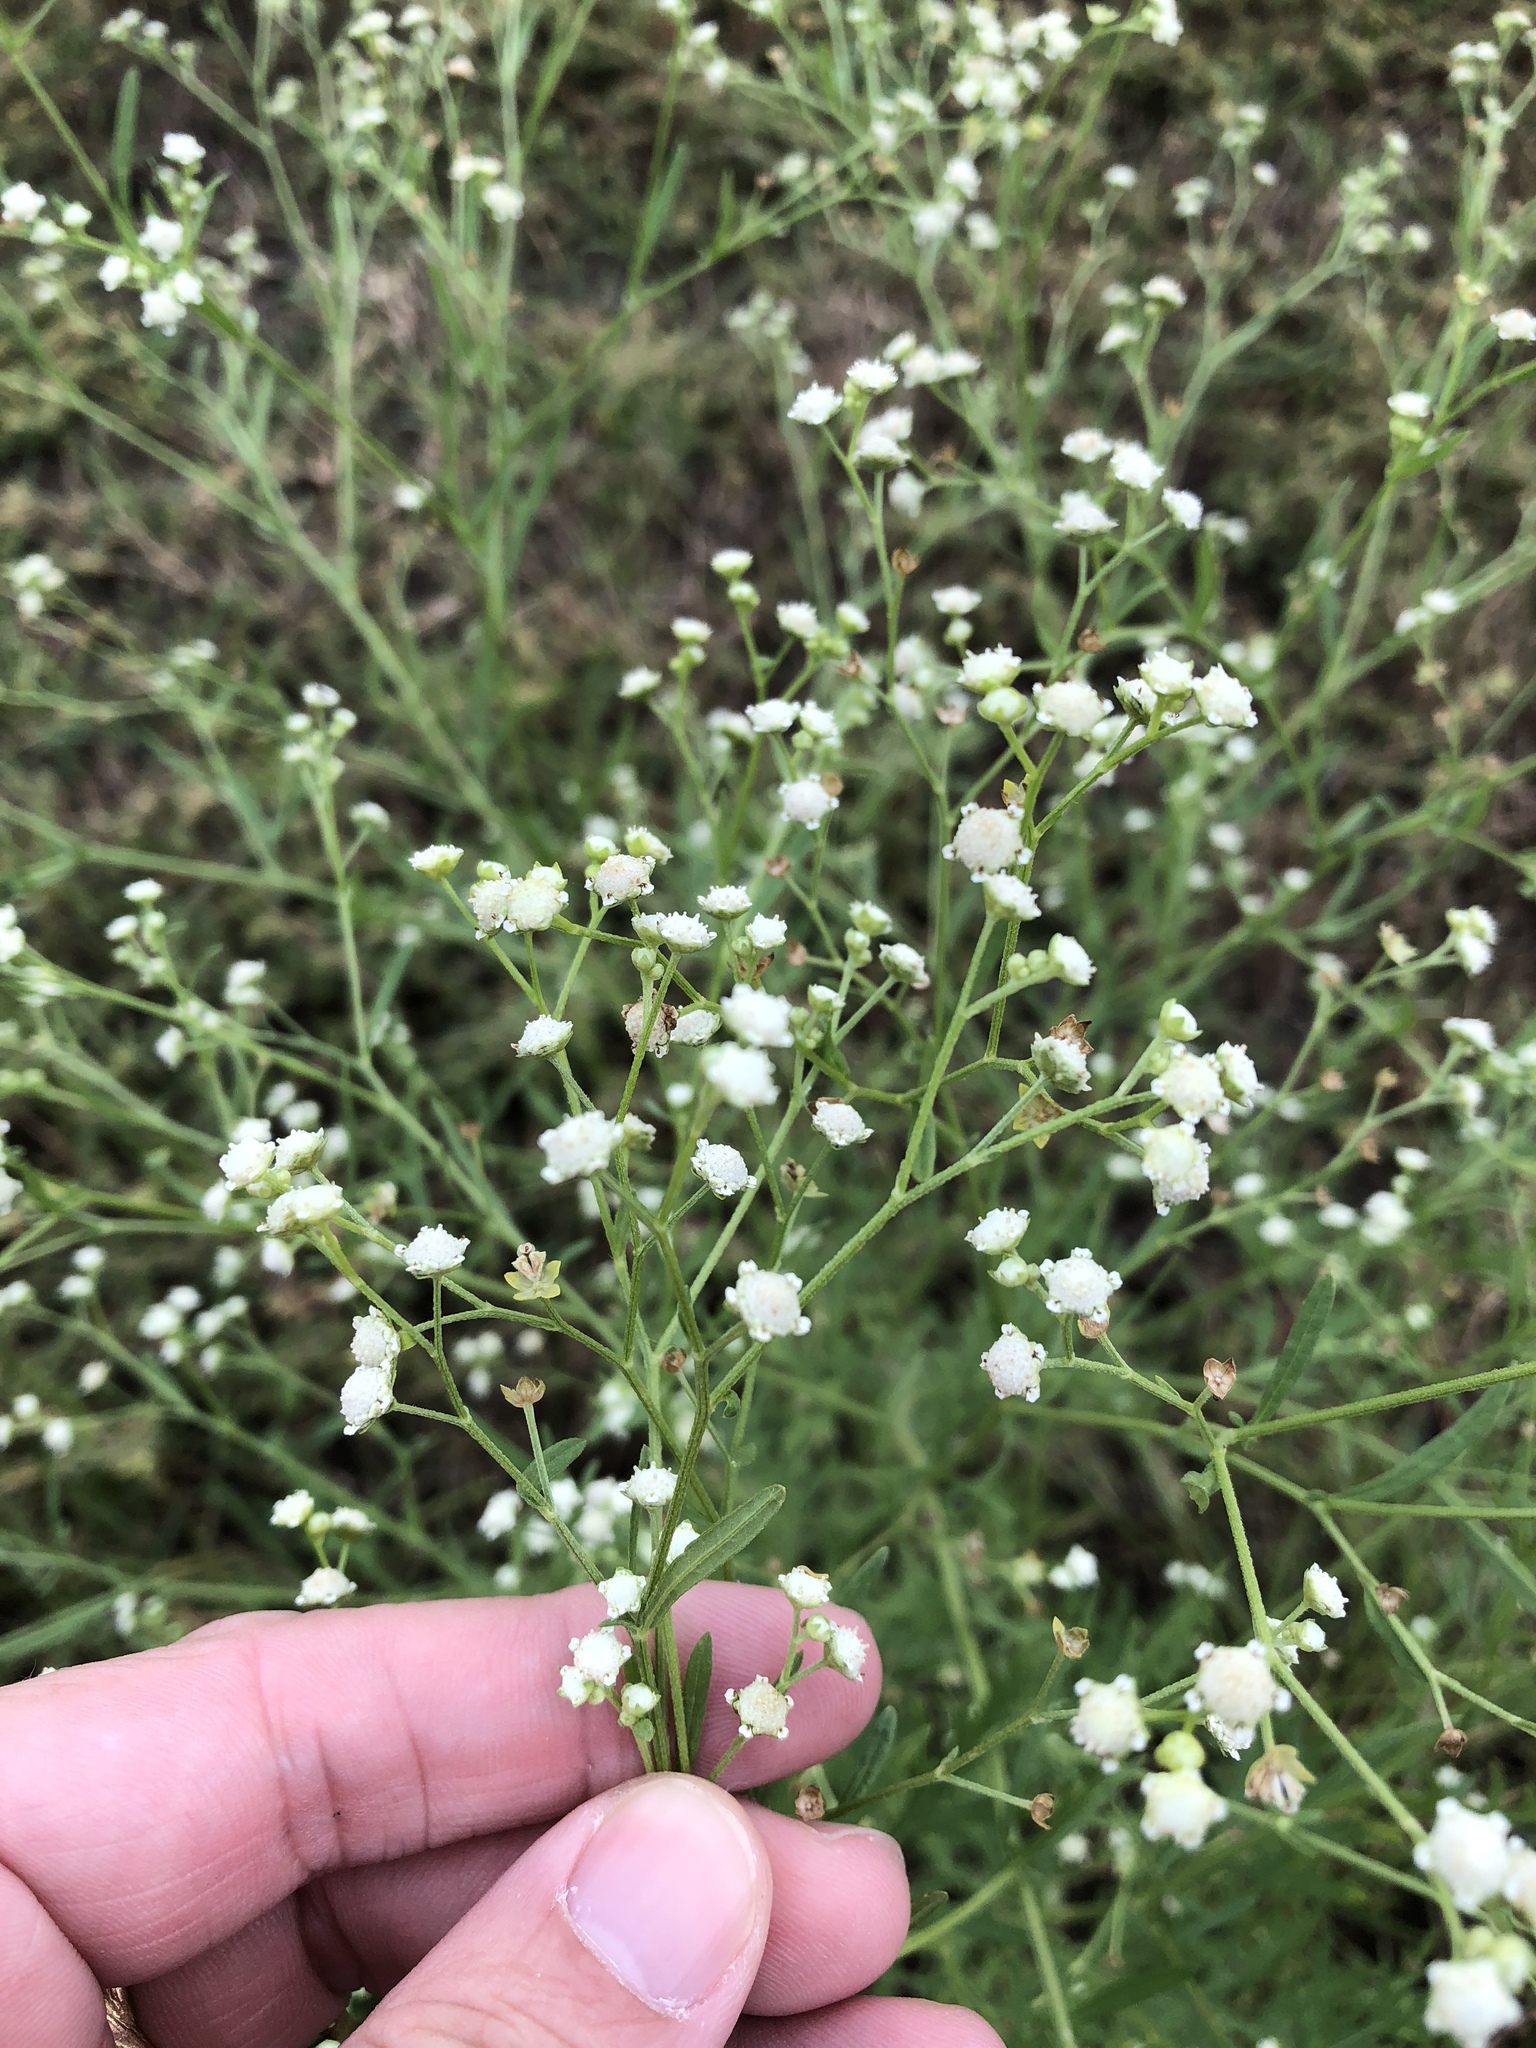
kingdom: Plantae
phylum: Tracheophyta
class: Magnoliopsida
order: Asterales
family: Asteraceae
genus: Parthenium
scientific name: Parthenium hysterophorus
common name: Santa maria feverfew
